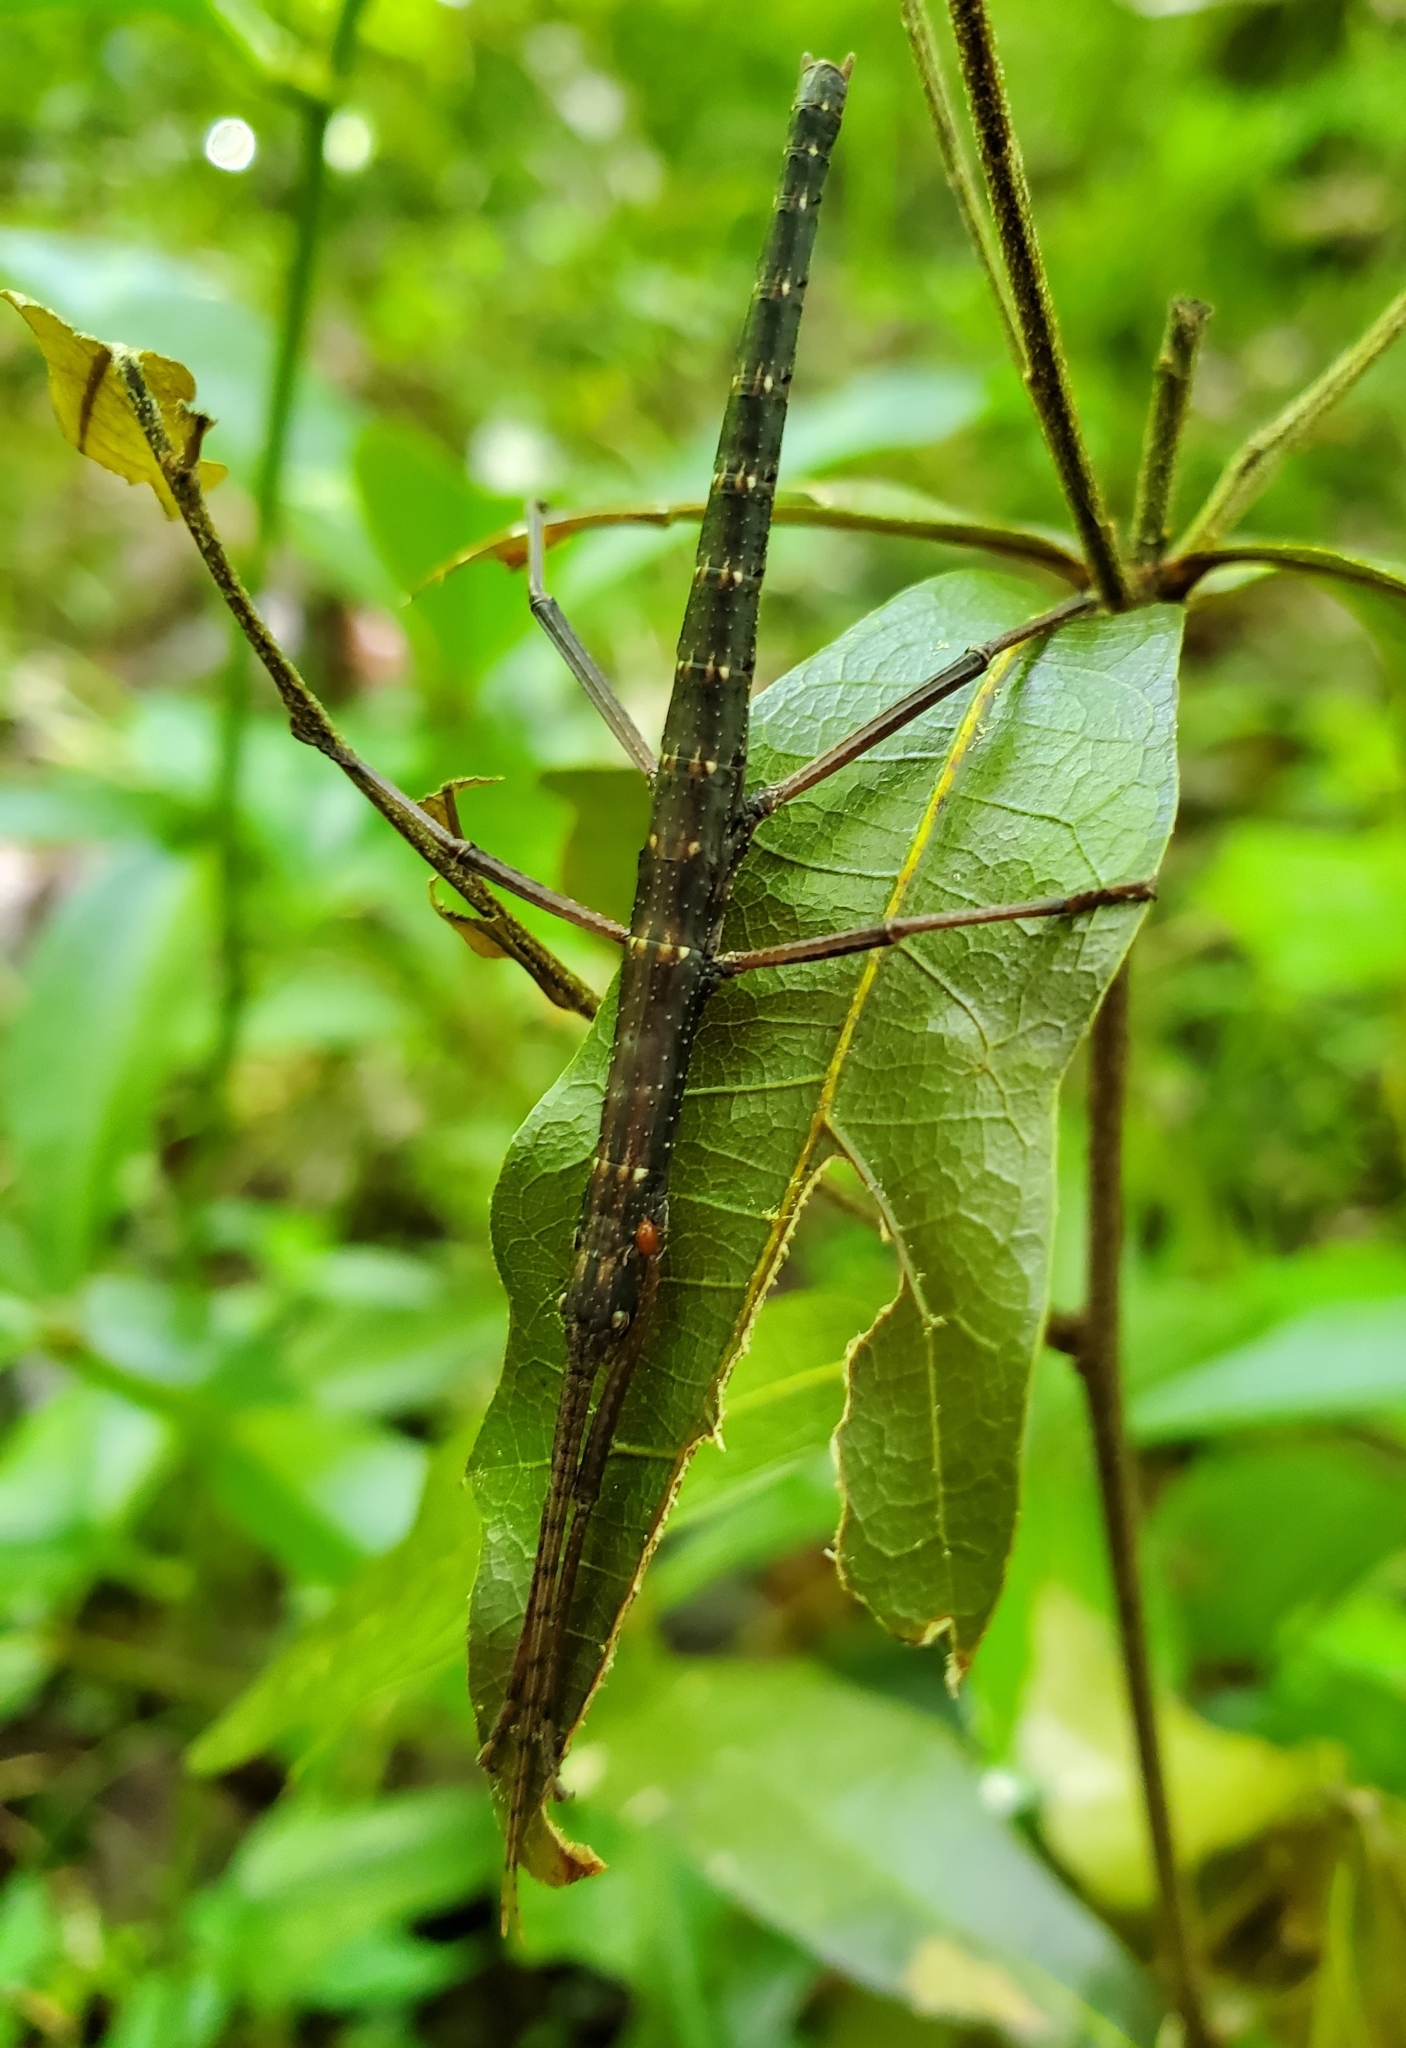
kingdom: Animalia
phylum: Arthropoda
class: Insecta
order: Phasmida
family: Pseudophasmatidae
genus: Anisomorpha
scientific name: Anisomorpha buprestoides
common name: Florida stick insect
